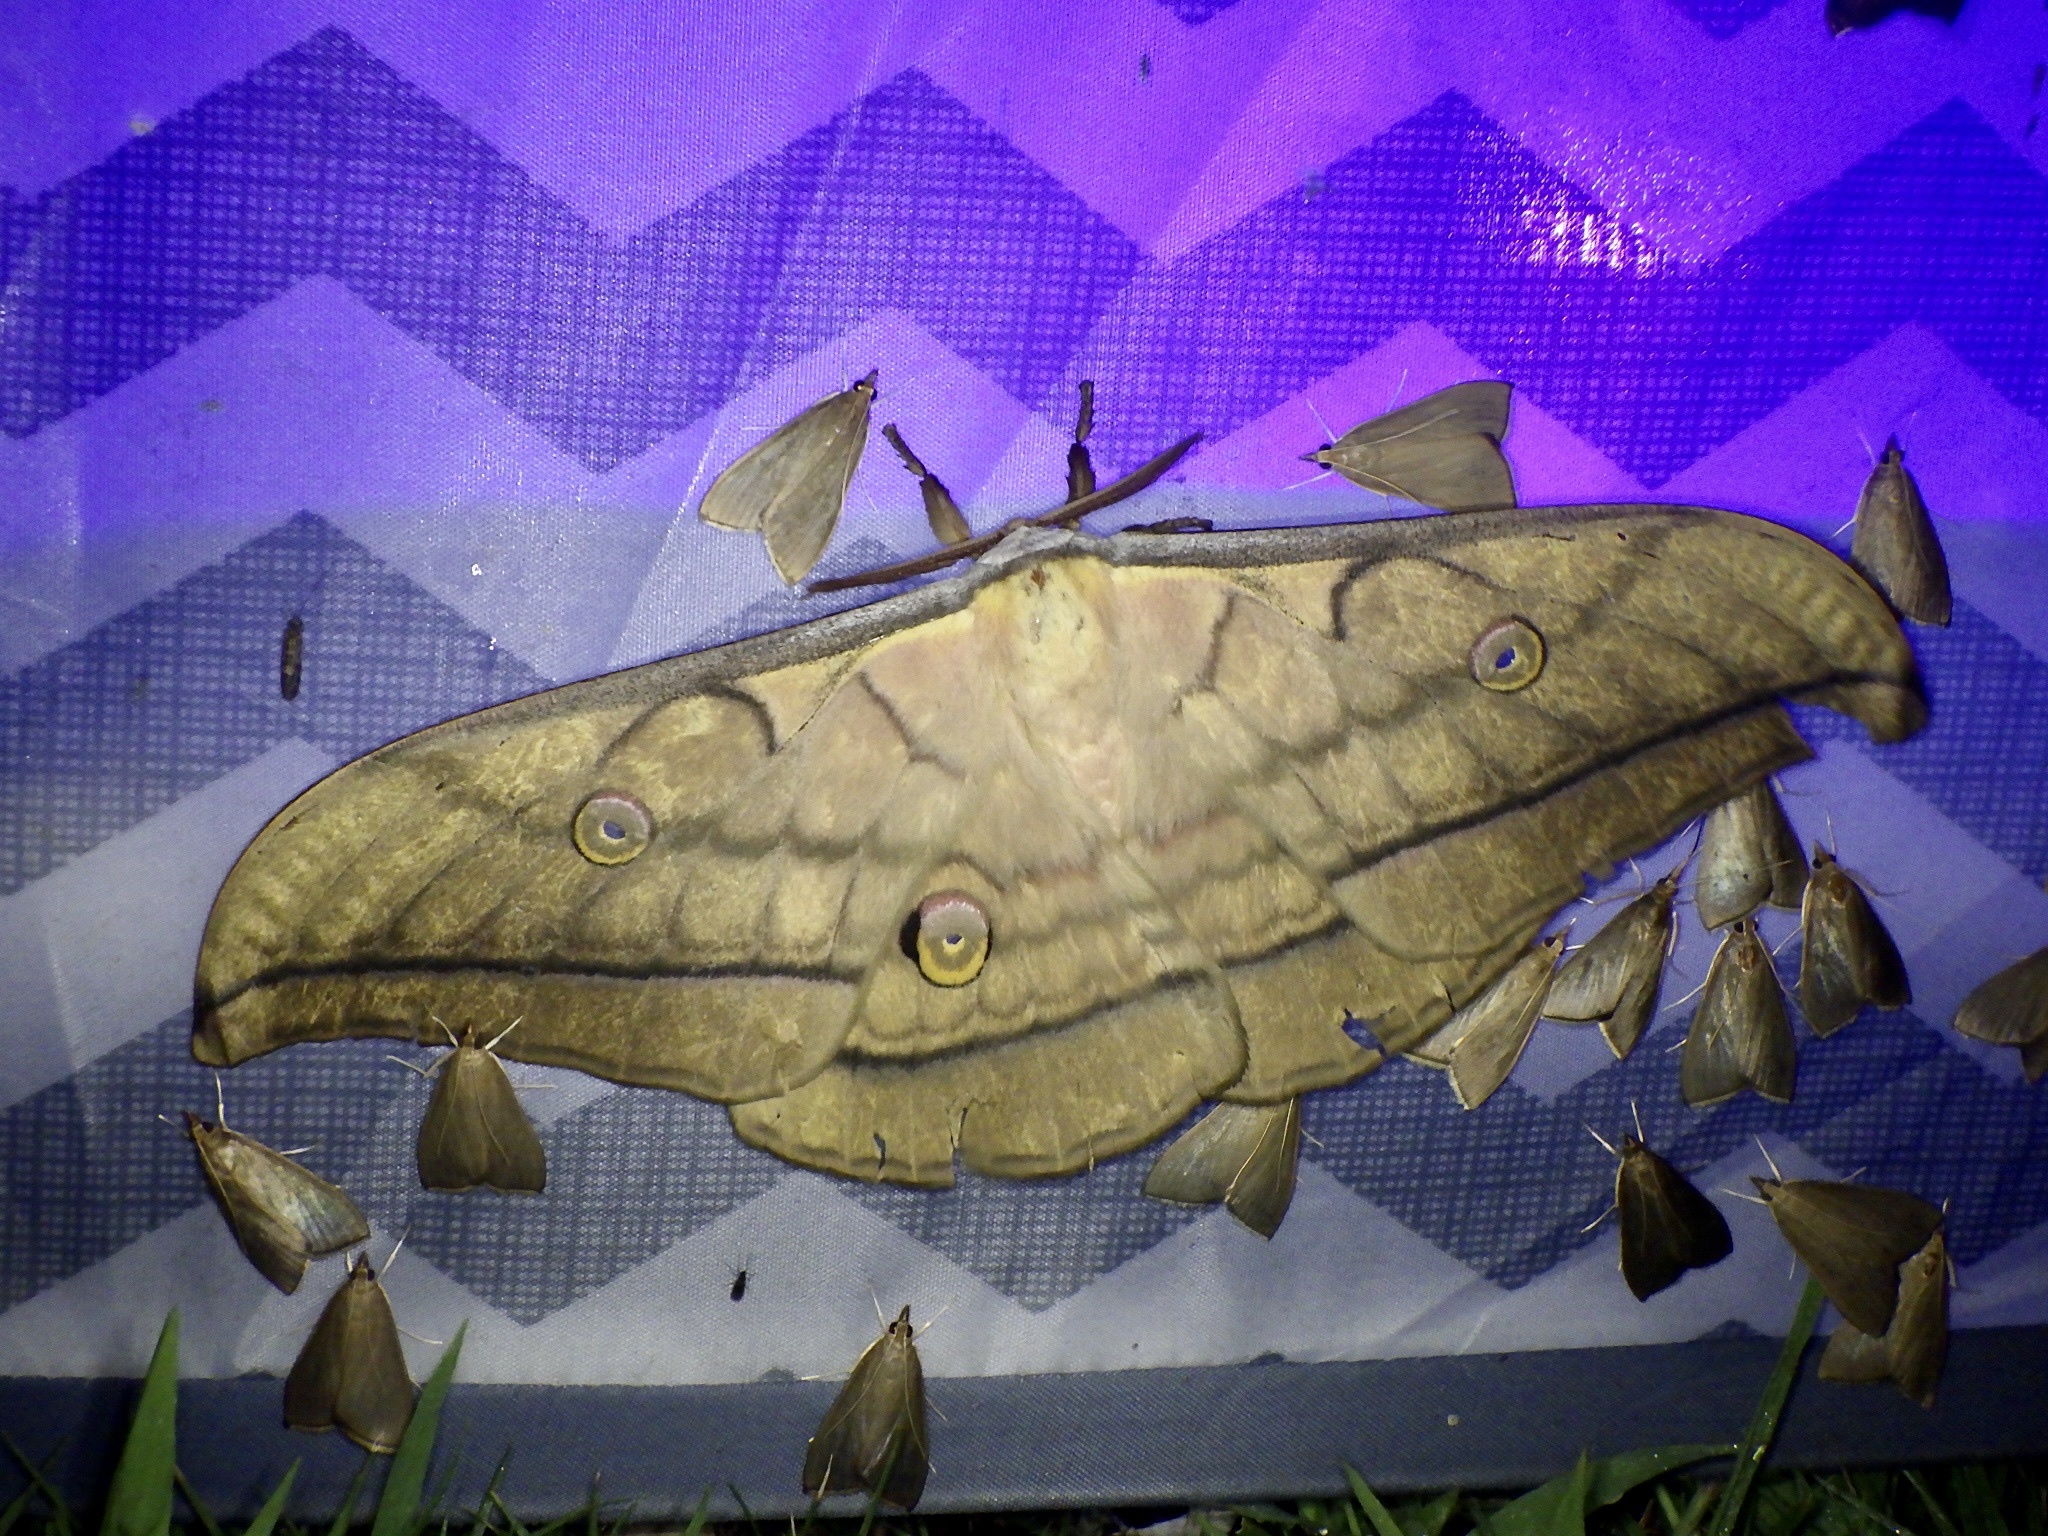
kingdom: Animalia
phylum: Arthropoda
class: Insecta
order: Lepidoptera
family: Saturniidae
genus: Antheraea
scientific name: Antheraea yamamai
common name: Japanese oak silk moth
